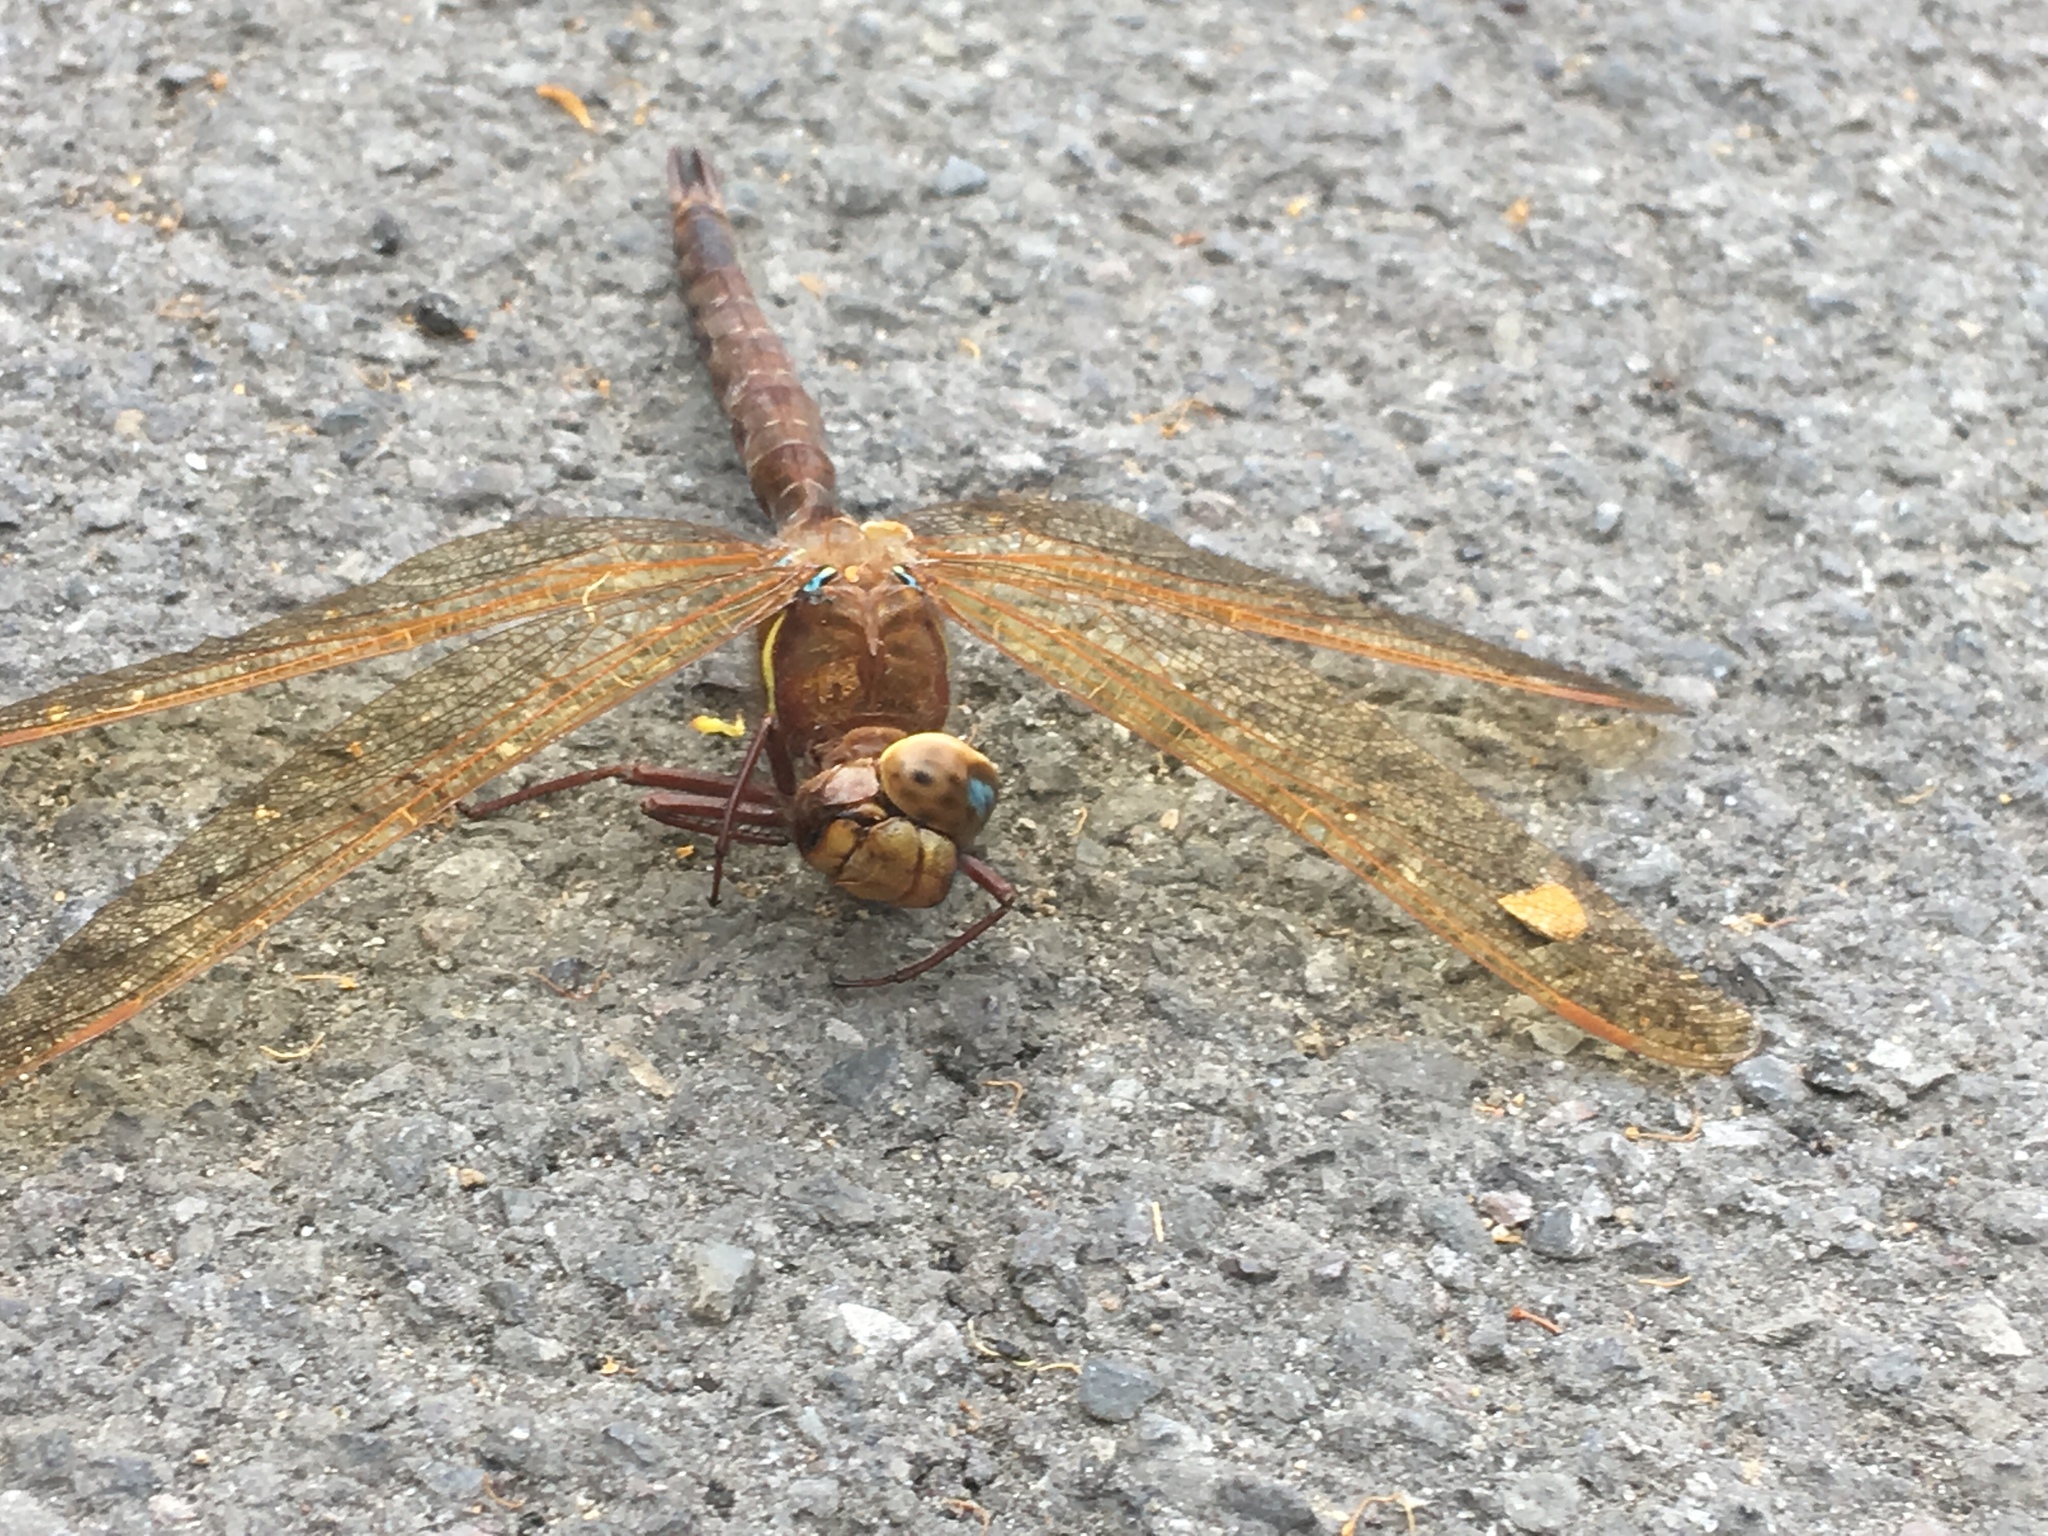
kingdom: Animalia
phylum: Arthropoda
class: Insecta
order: Odonata
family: Aeshnidae
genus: Aeshna
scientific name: Aeshna grandis
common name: Brown hawker
